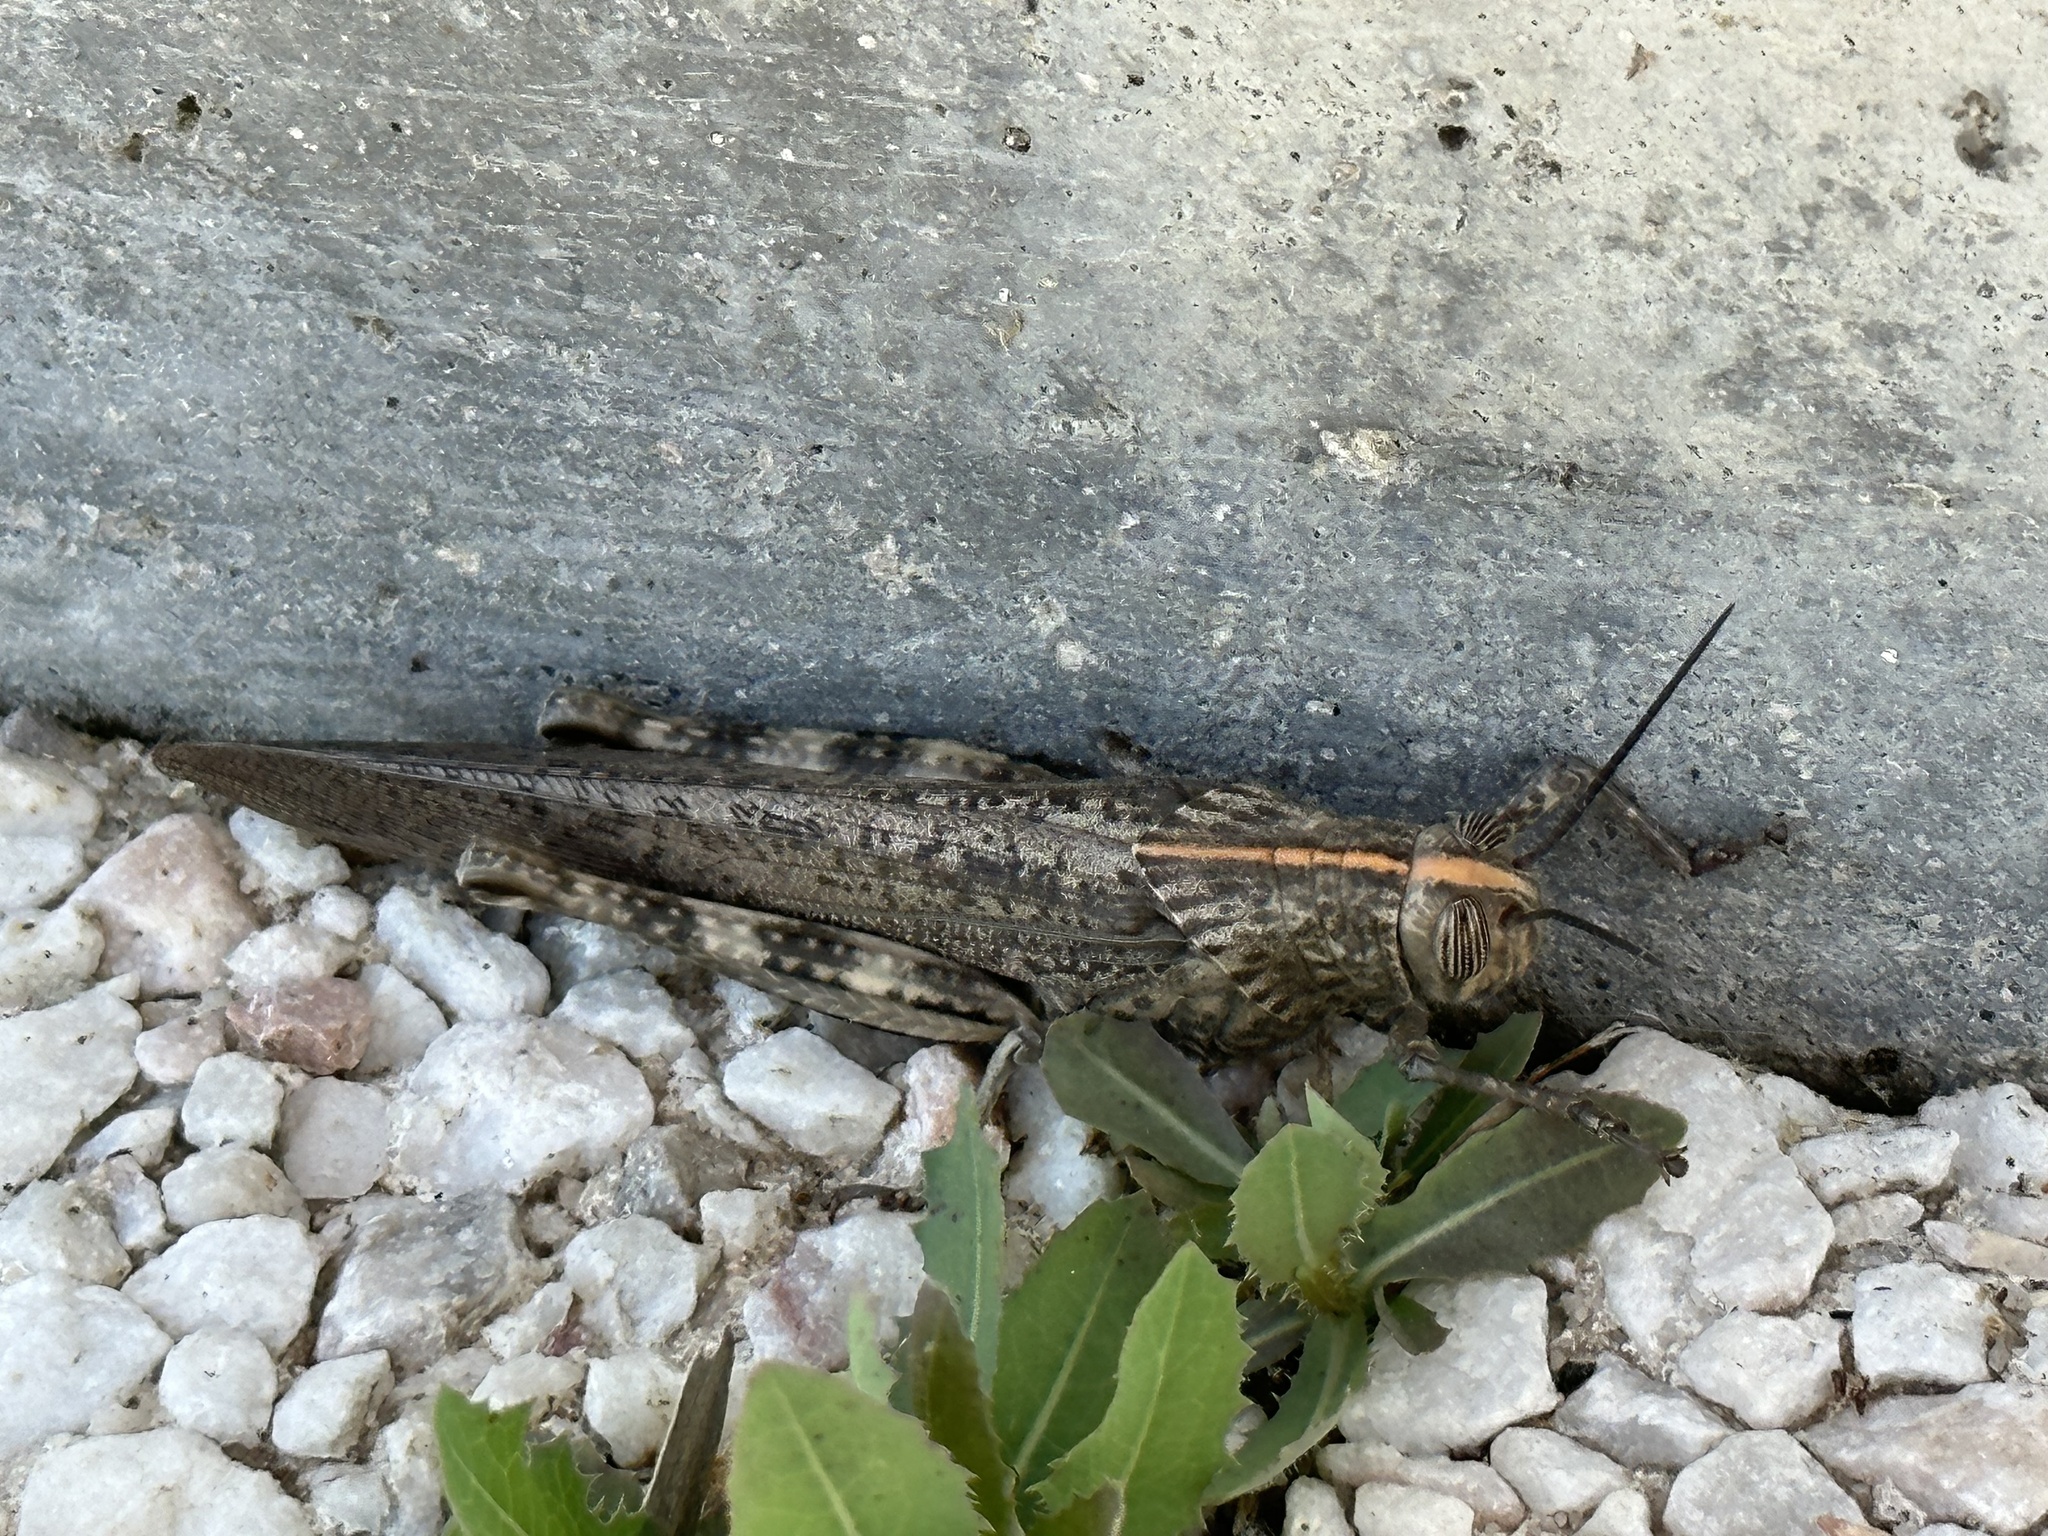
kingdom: Animalia
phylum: Arthropoda
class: Insecta
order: Orthoptera
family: Acrididae
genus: Anacridium
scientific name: Anacridium aegyptium
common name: Egyptian grasshopper
